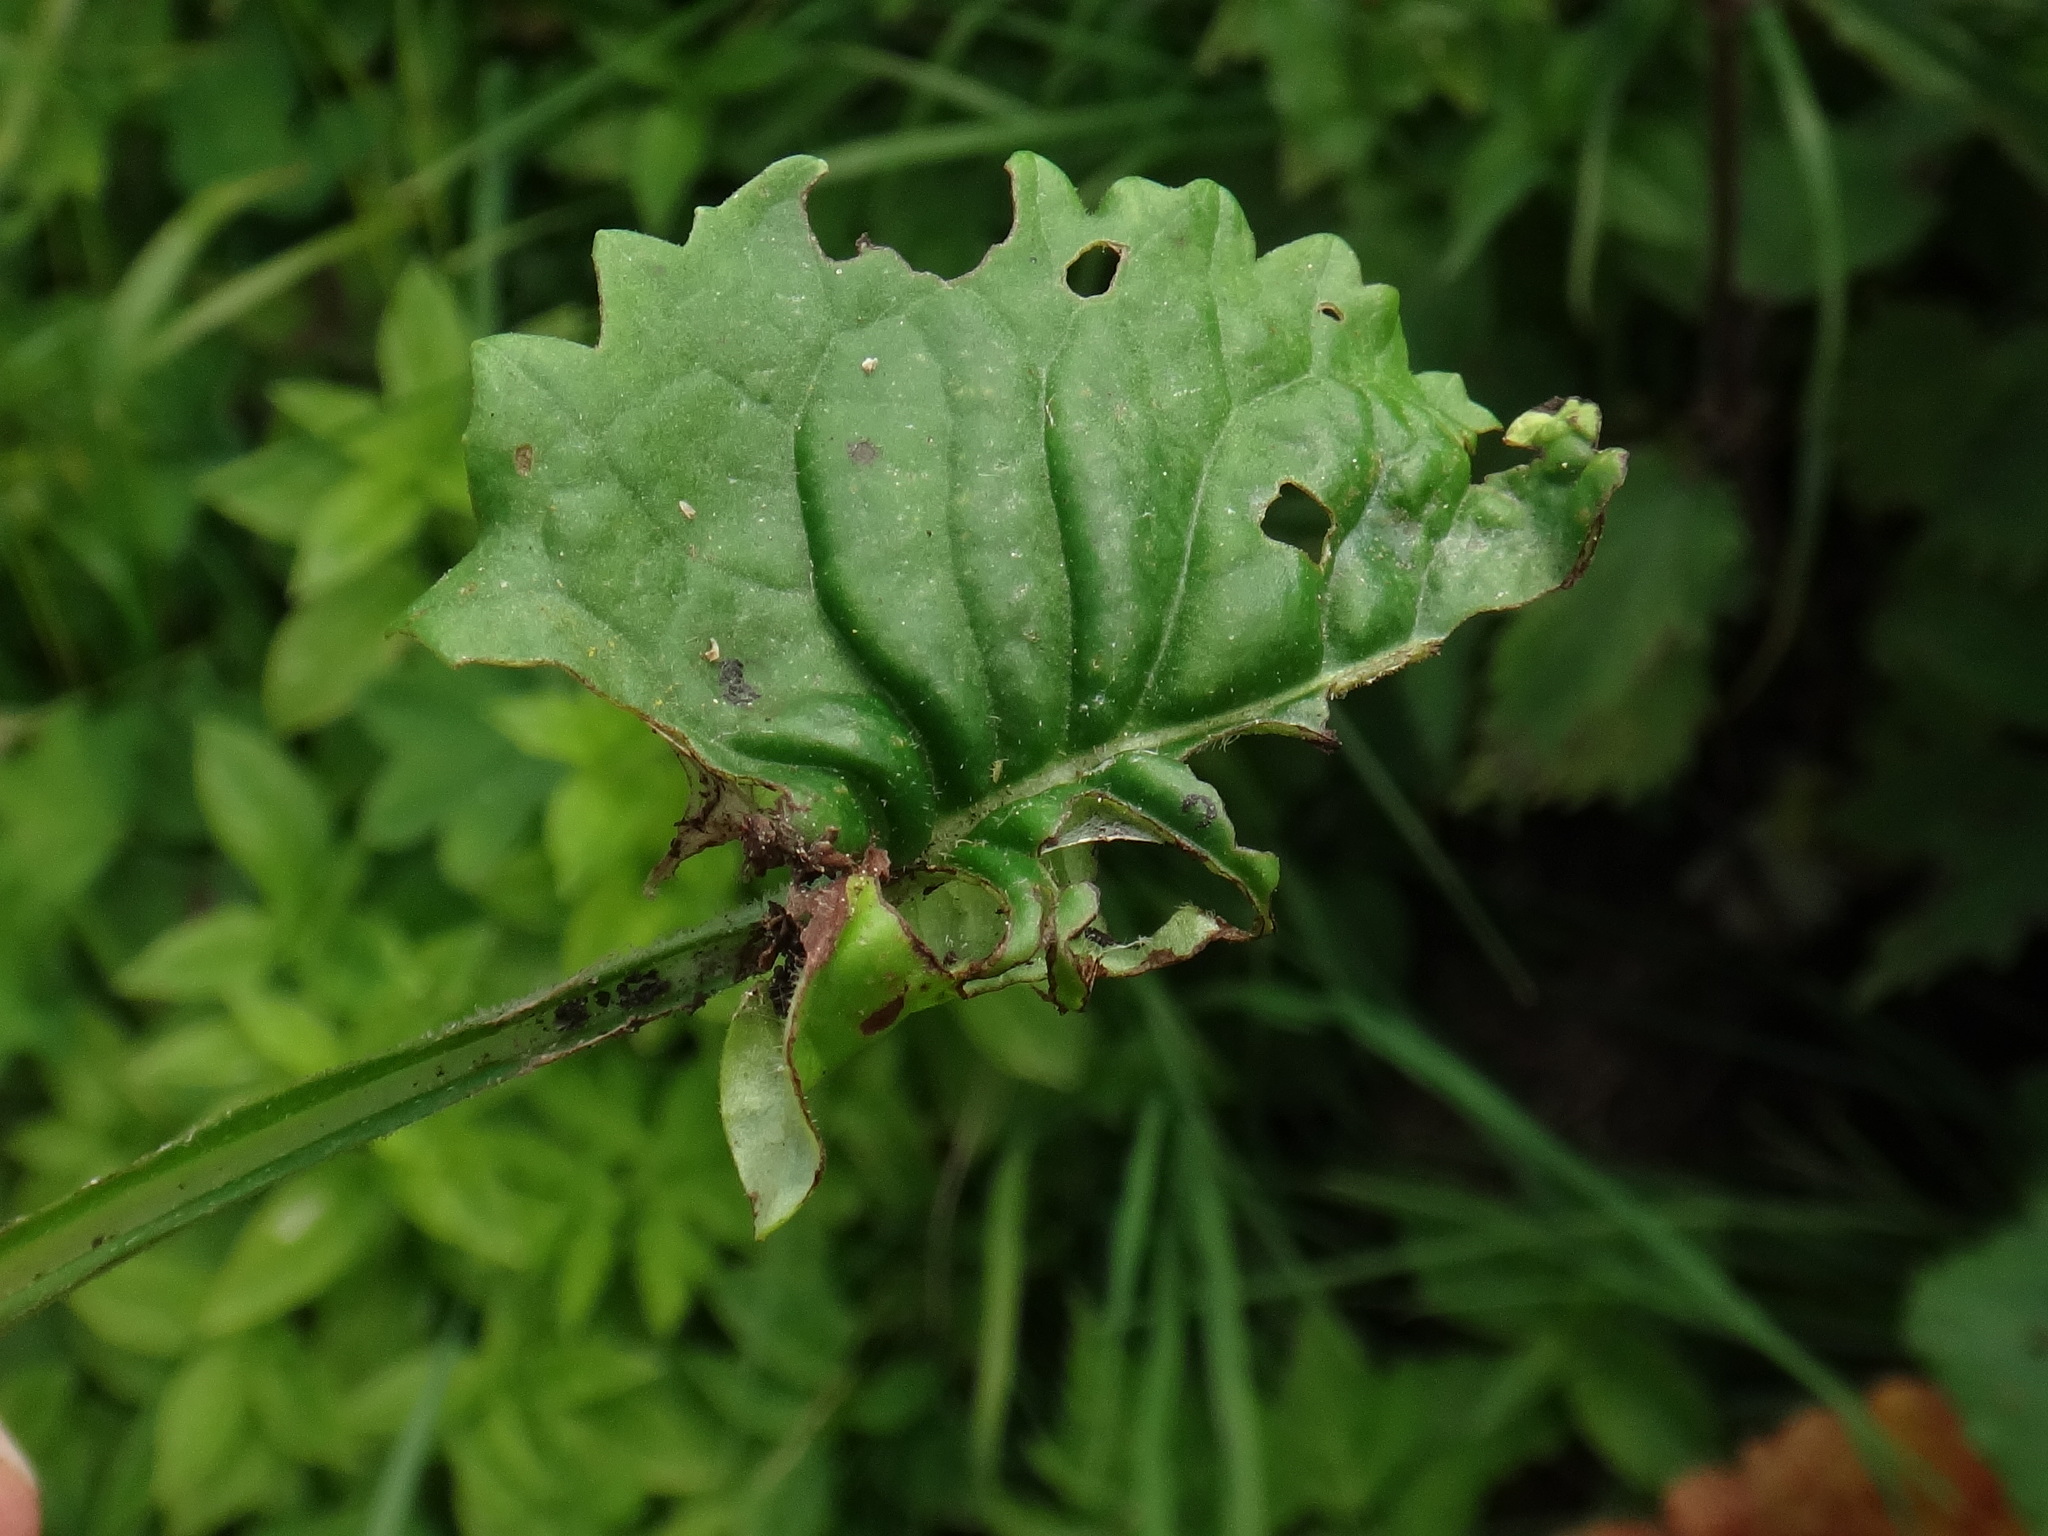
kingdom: Plantae
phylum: Tracheophyta
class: Magnoliopsida
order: Asterales
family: Asteraceae
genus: Tephroseris
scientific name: Tephroseris crispa
